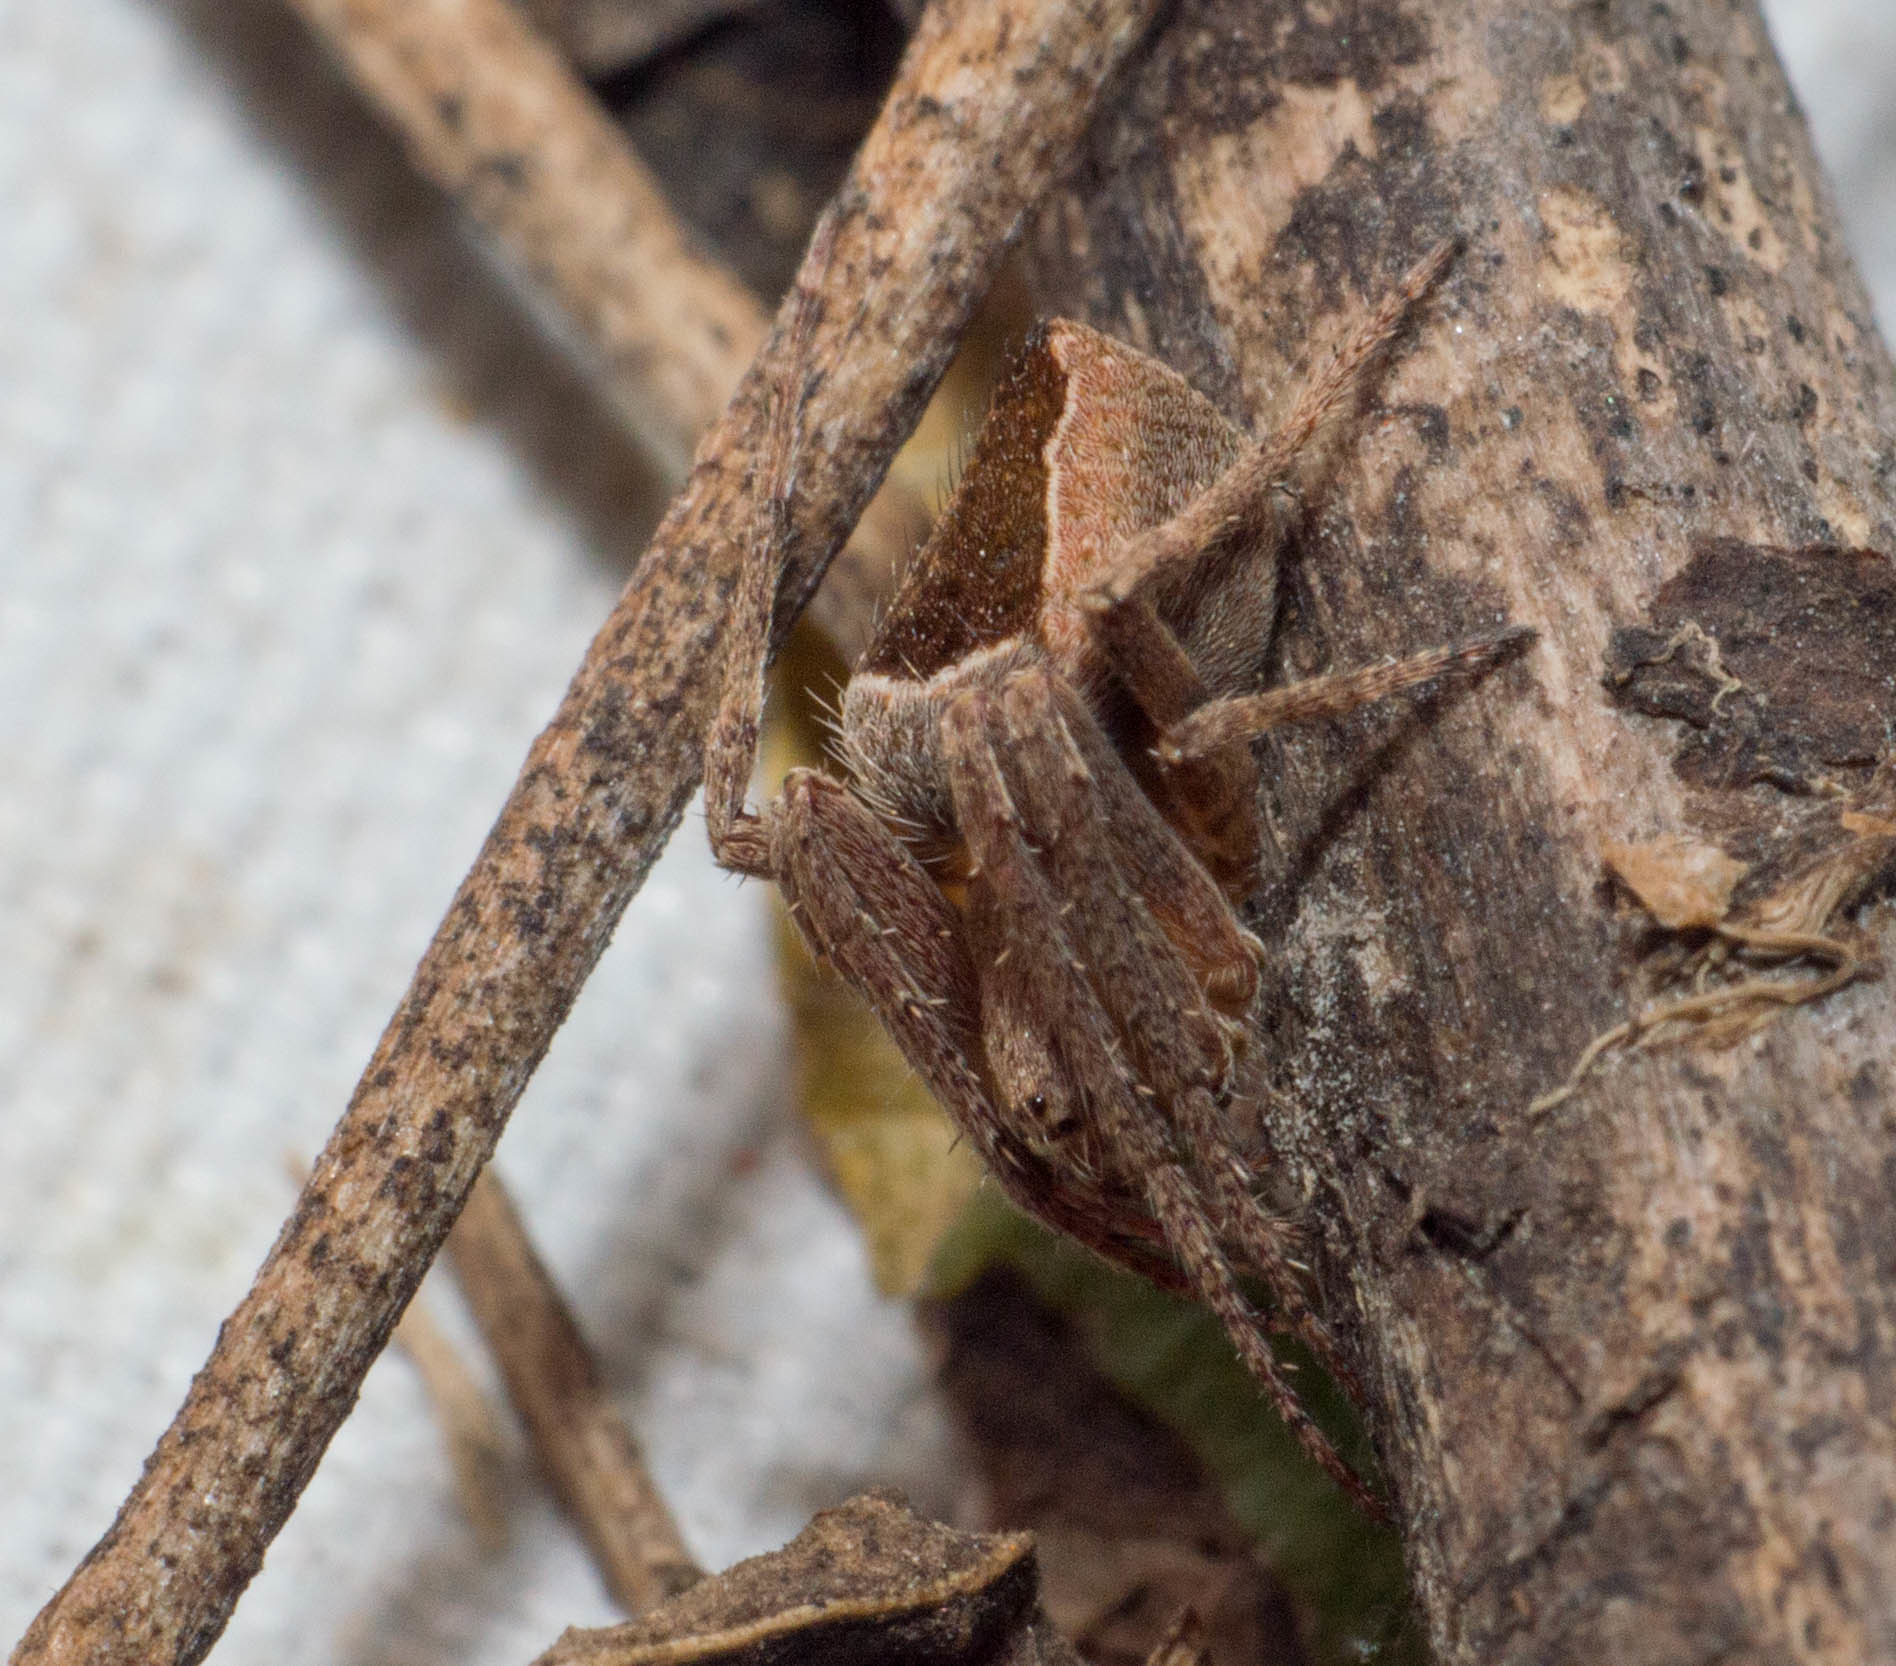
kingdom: Animalia
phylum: Arthropoda
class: Arachnida
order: Araneae
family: Araneidae
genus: Eustala
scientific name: Eustala photographica
